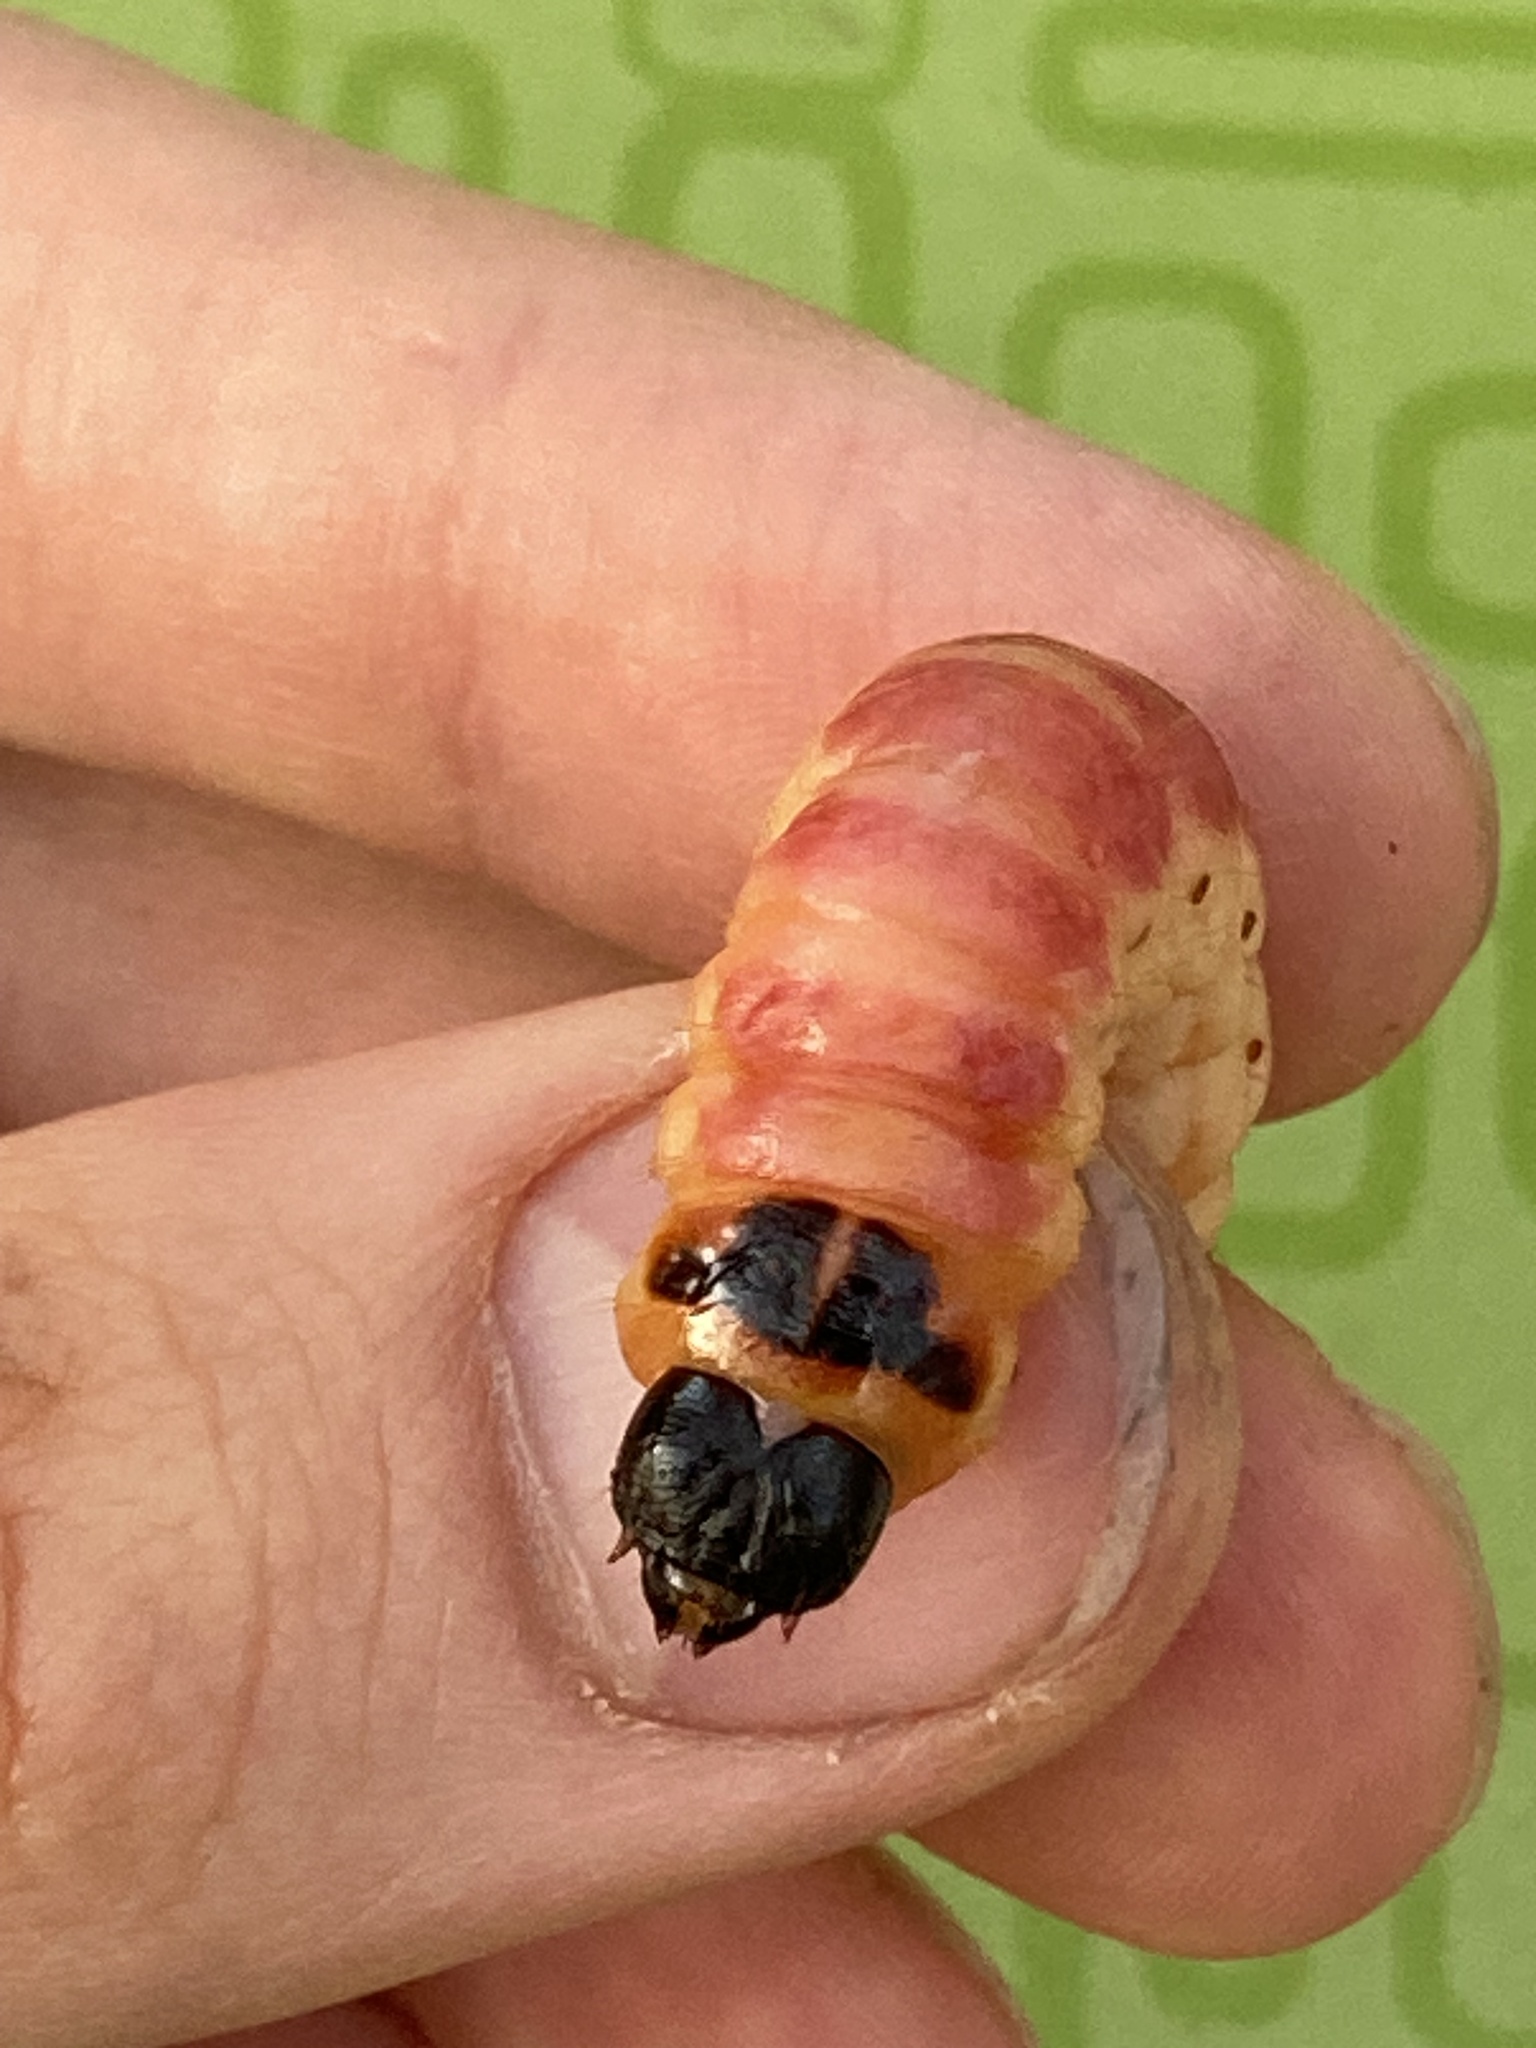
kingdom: Animalia
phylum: Arthropoda
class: Insecta
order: Lepidoptera
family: Cossidae
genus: Cossus
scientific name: Cossus cossus
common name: Goat moth
